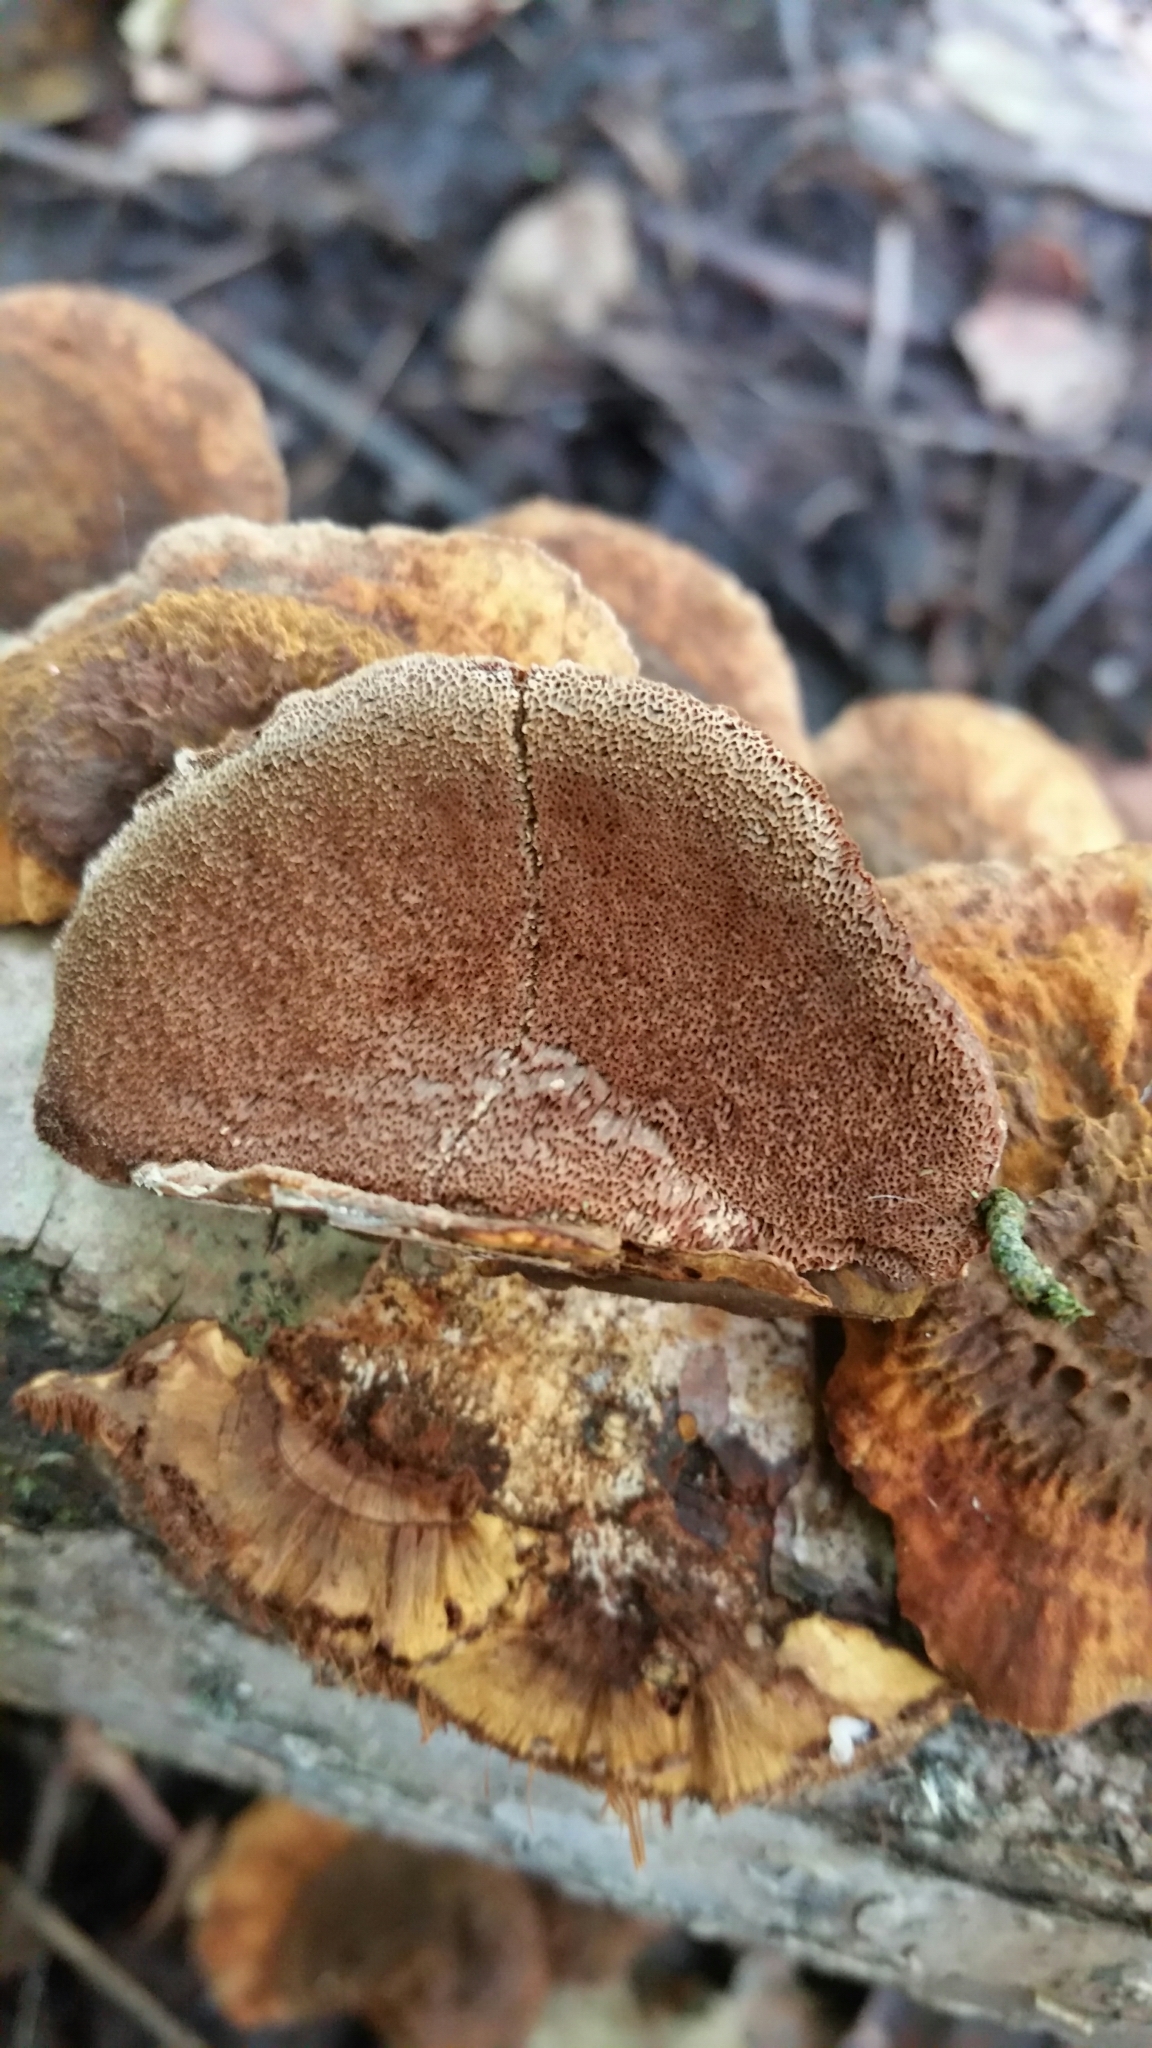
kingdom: Fungi
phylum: Basidiomycota
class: Agaricomycetes
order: Hymenochaetales
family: Hymenochaetaceae
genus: Xanthoporia
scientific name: Xanthoporia radiata
